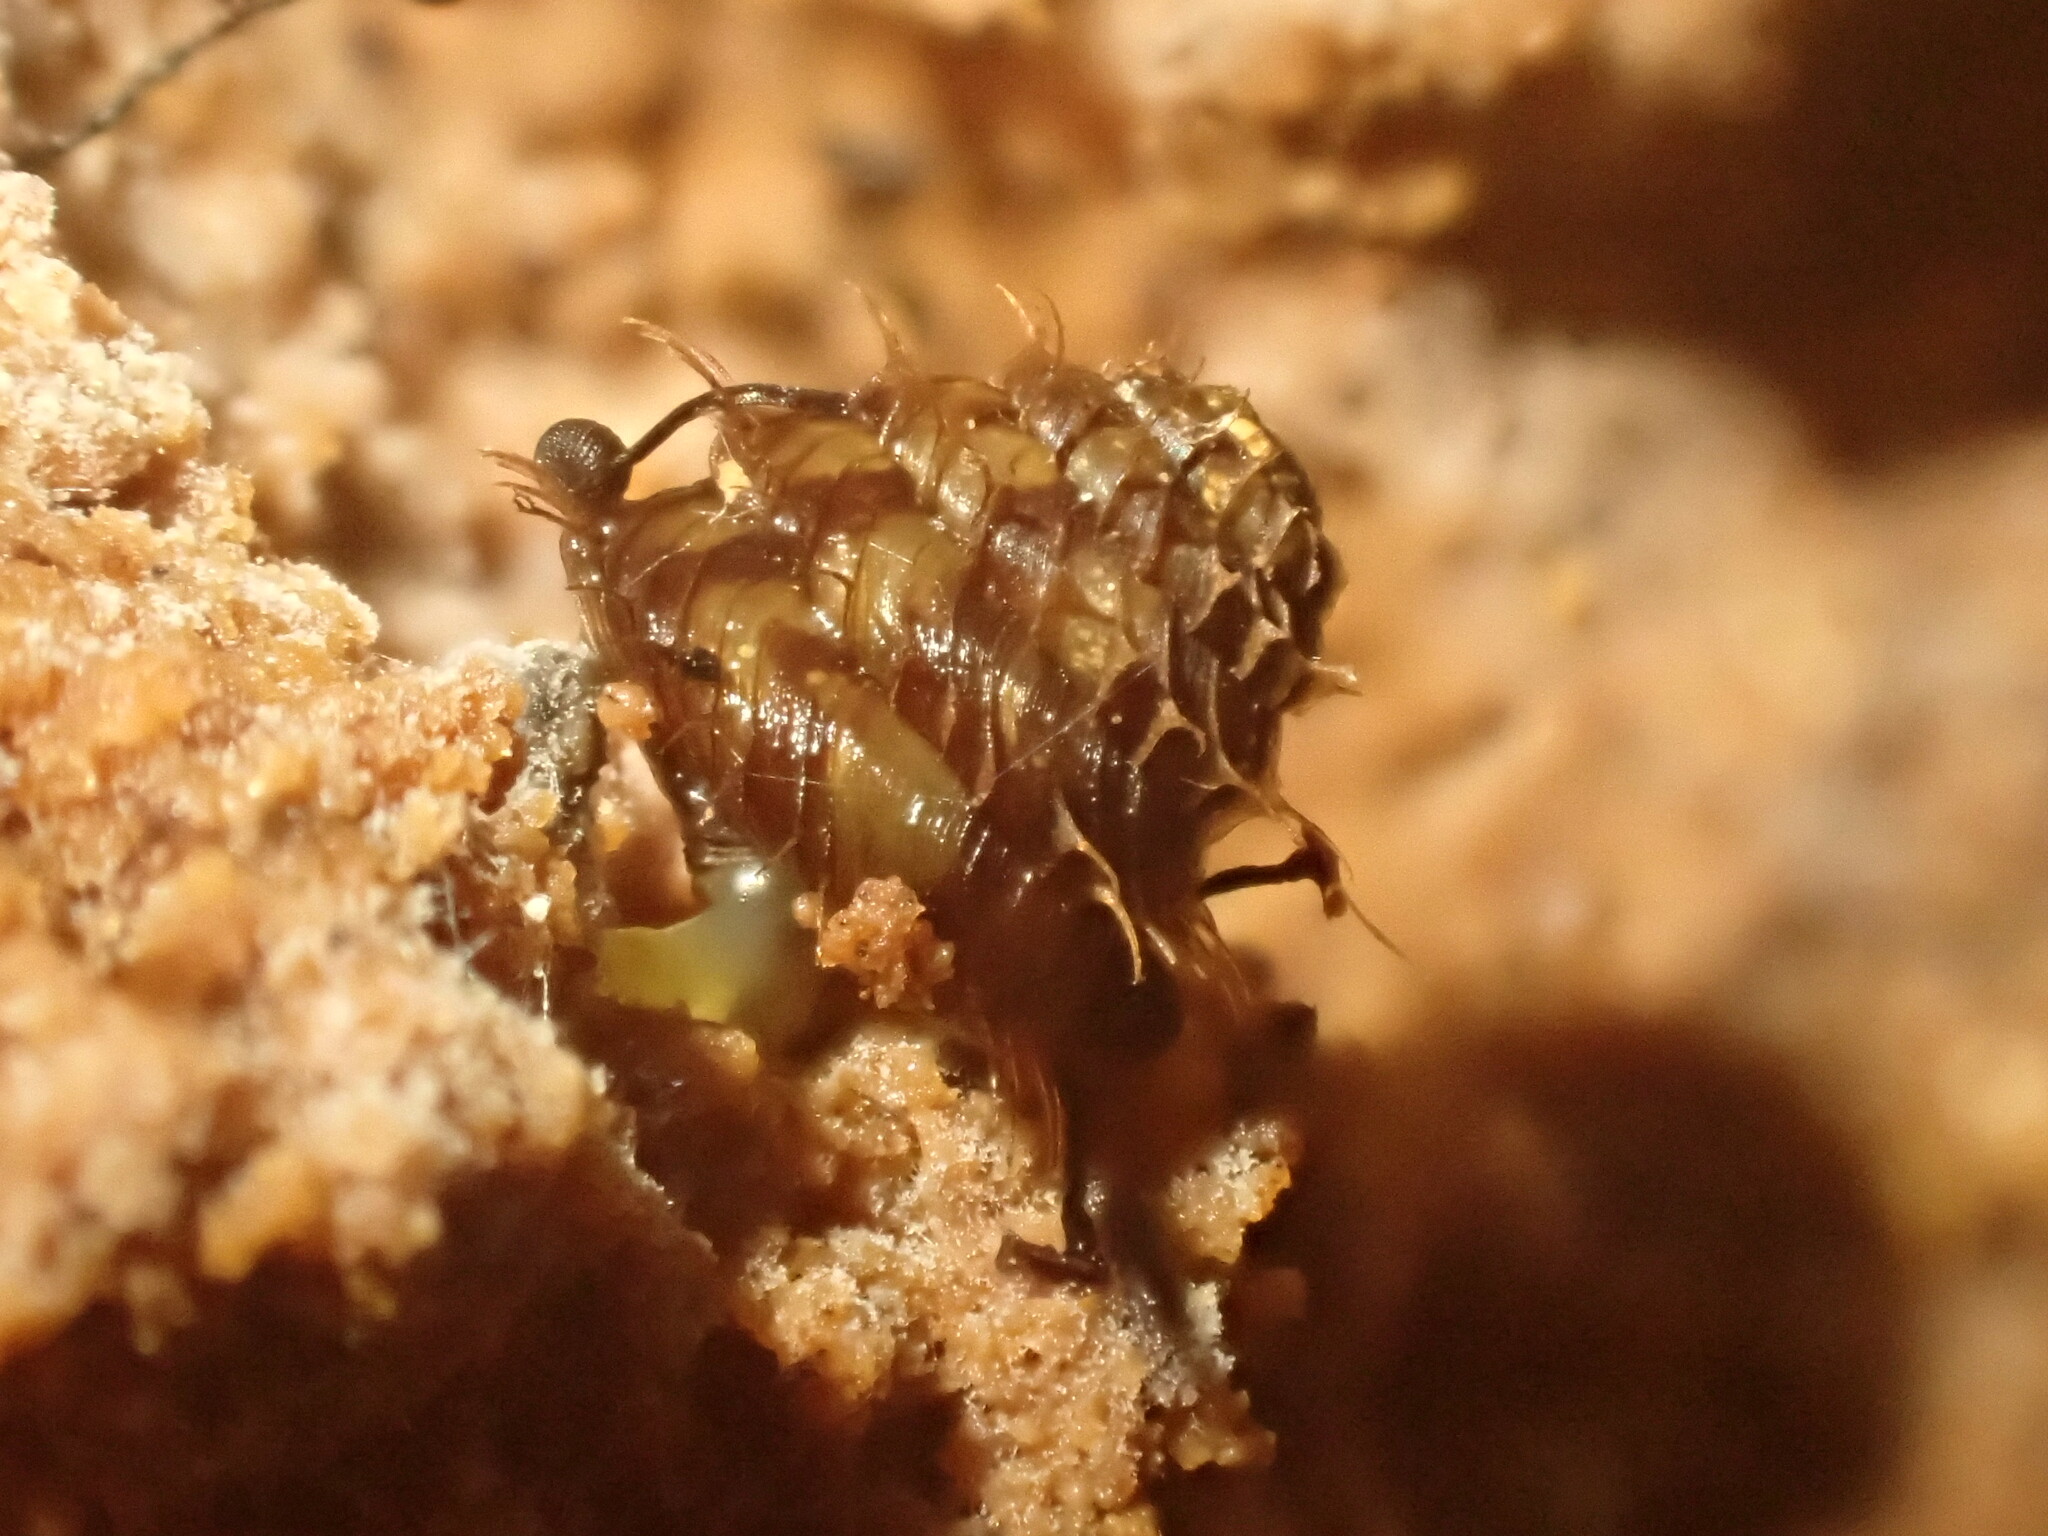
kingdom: Animalia
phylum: Mollusca
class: Gastropoda
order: Stylommatophora
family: Charopidae
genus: Aeschrodomus
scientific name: Aeschrodomus stipulata
